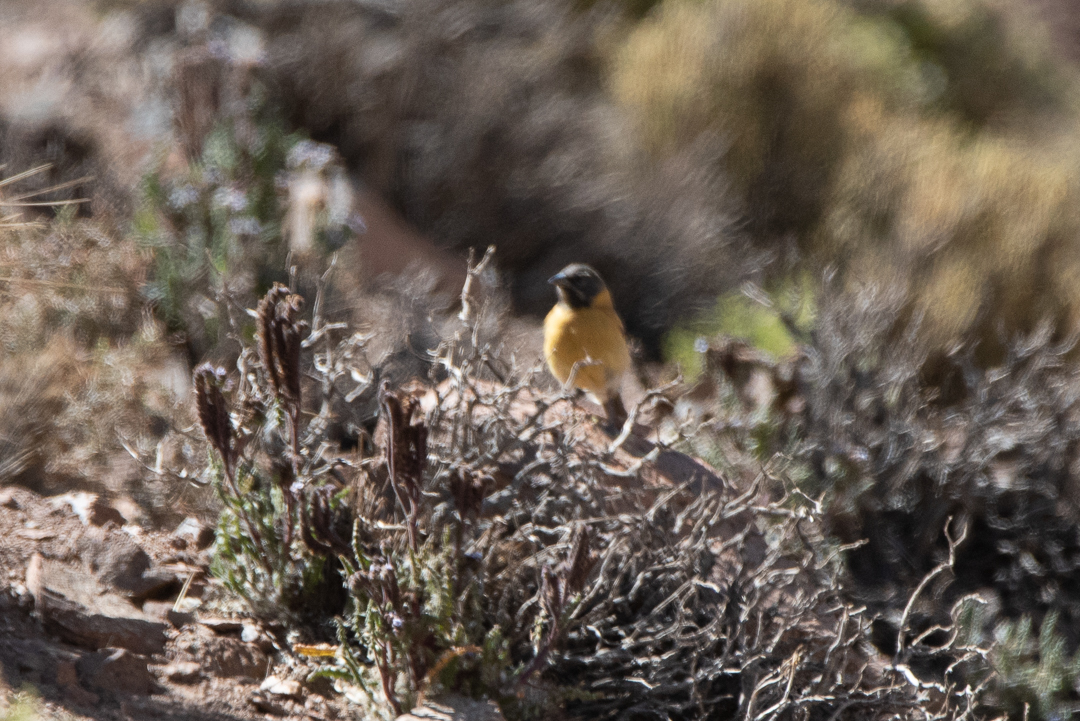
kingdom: Animalia
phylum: Chordata
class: Aves
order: Passeriformes
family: Thraupidae
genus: Phrygilus
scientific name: Phrygilus atriceps
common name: Black-hooded sierra finch
